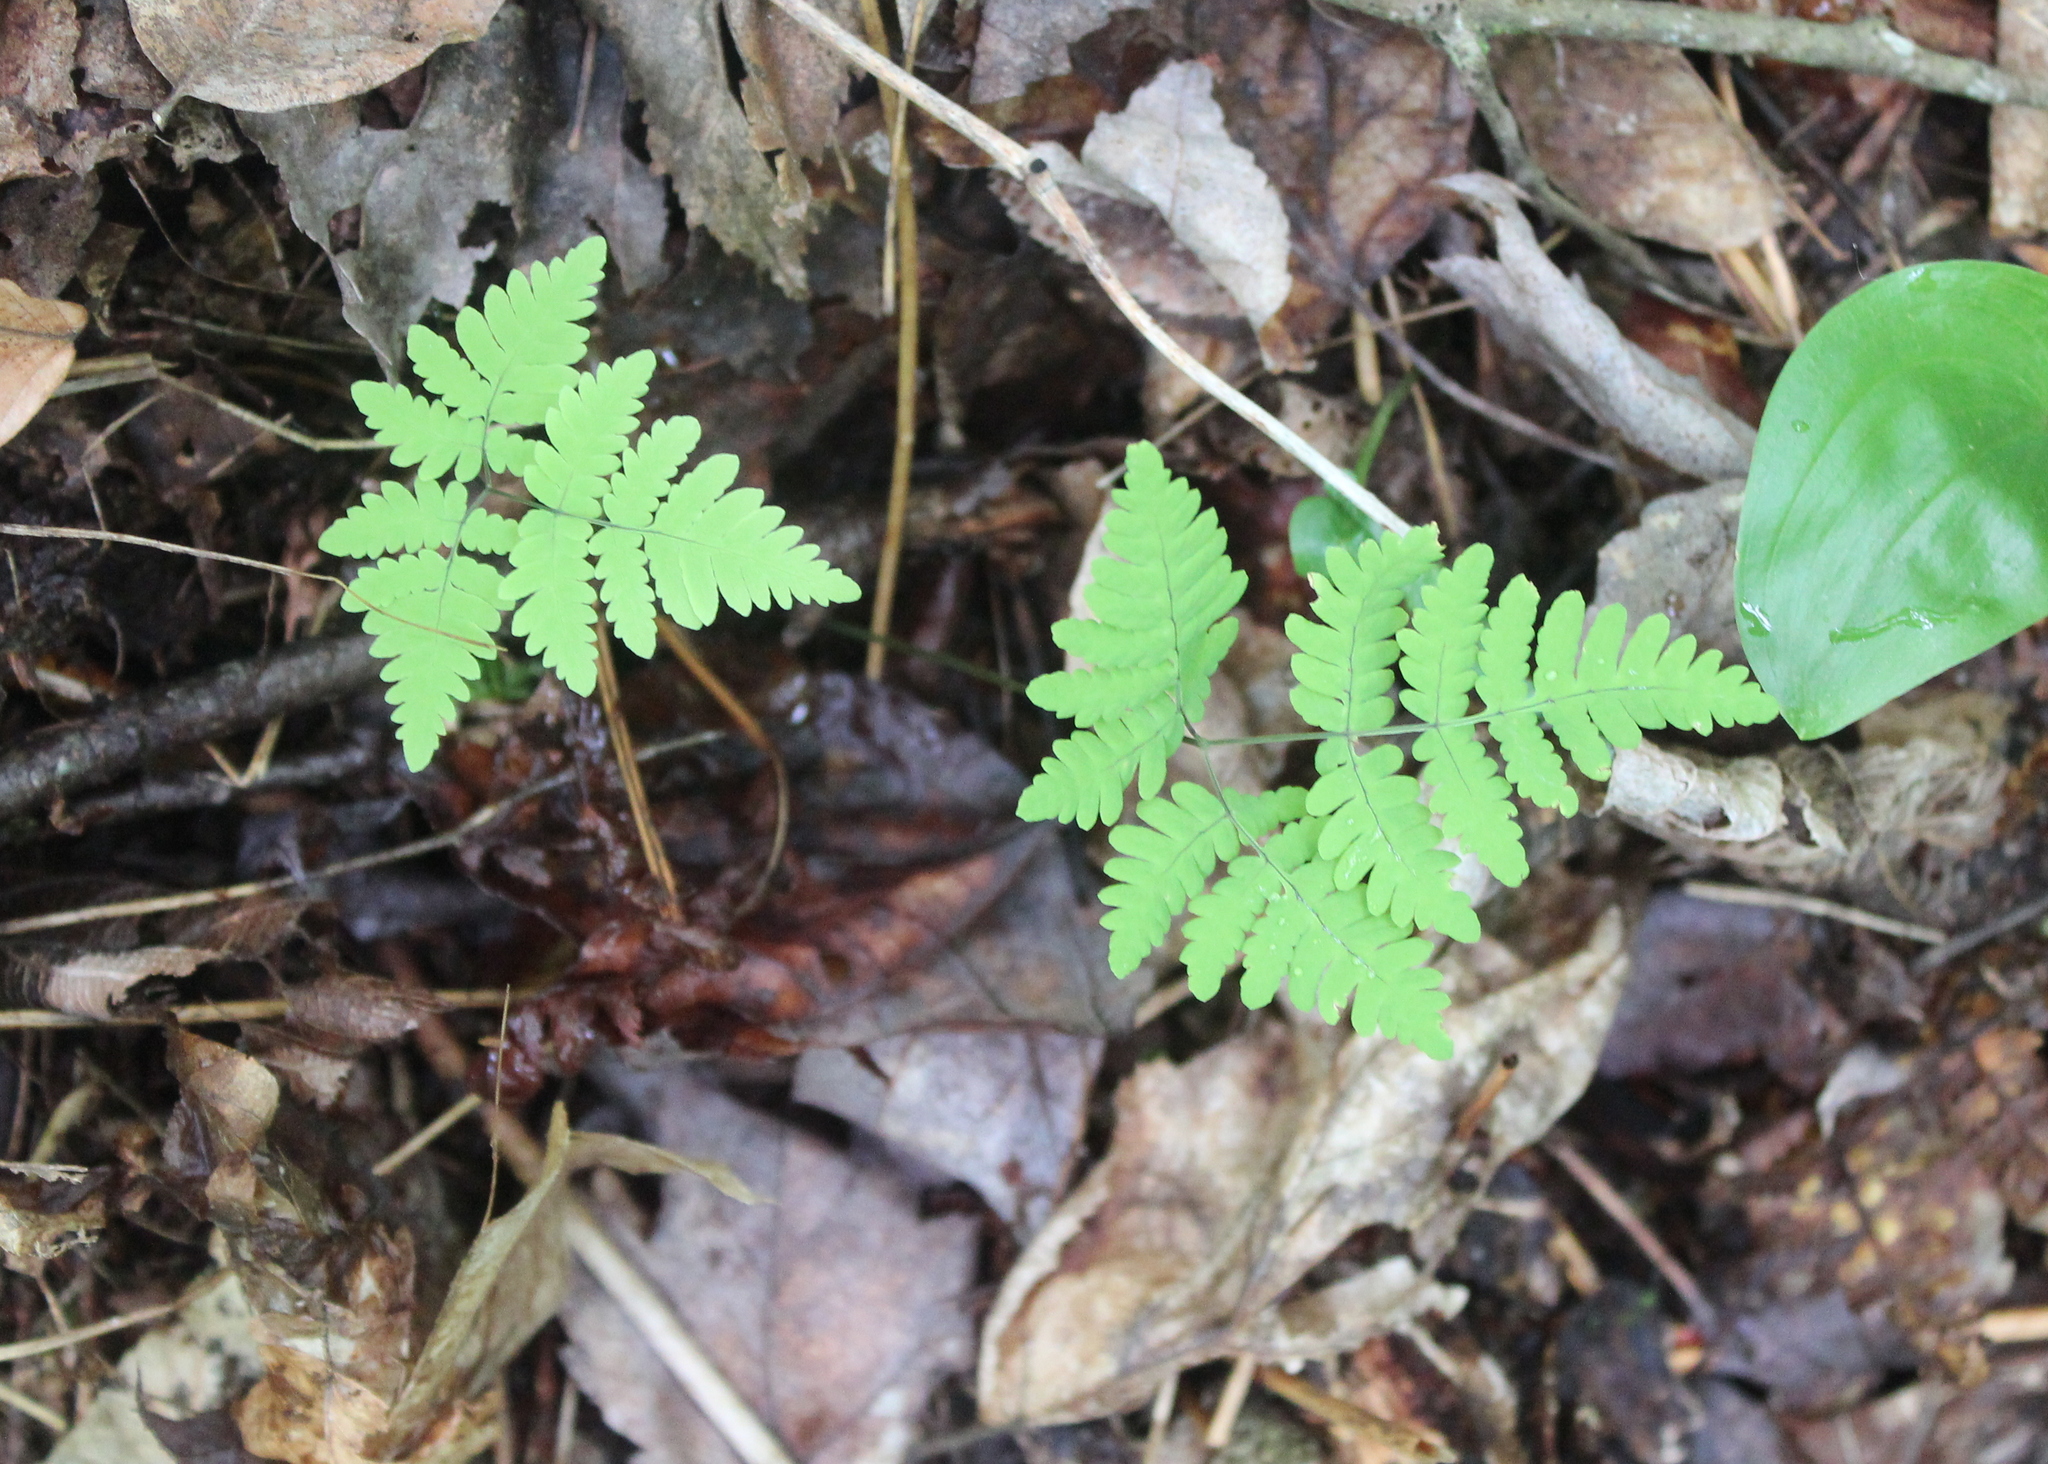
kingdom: Plantae
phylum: Tracheophyta
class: Polypodiopsida
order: Polypodiales
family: Cystopteridaceae
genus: Gymnocarpium
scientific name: Gymnocarpium dryopteris
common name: Oak fern
